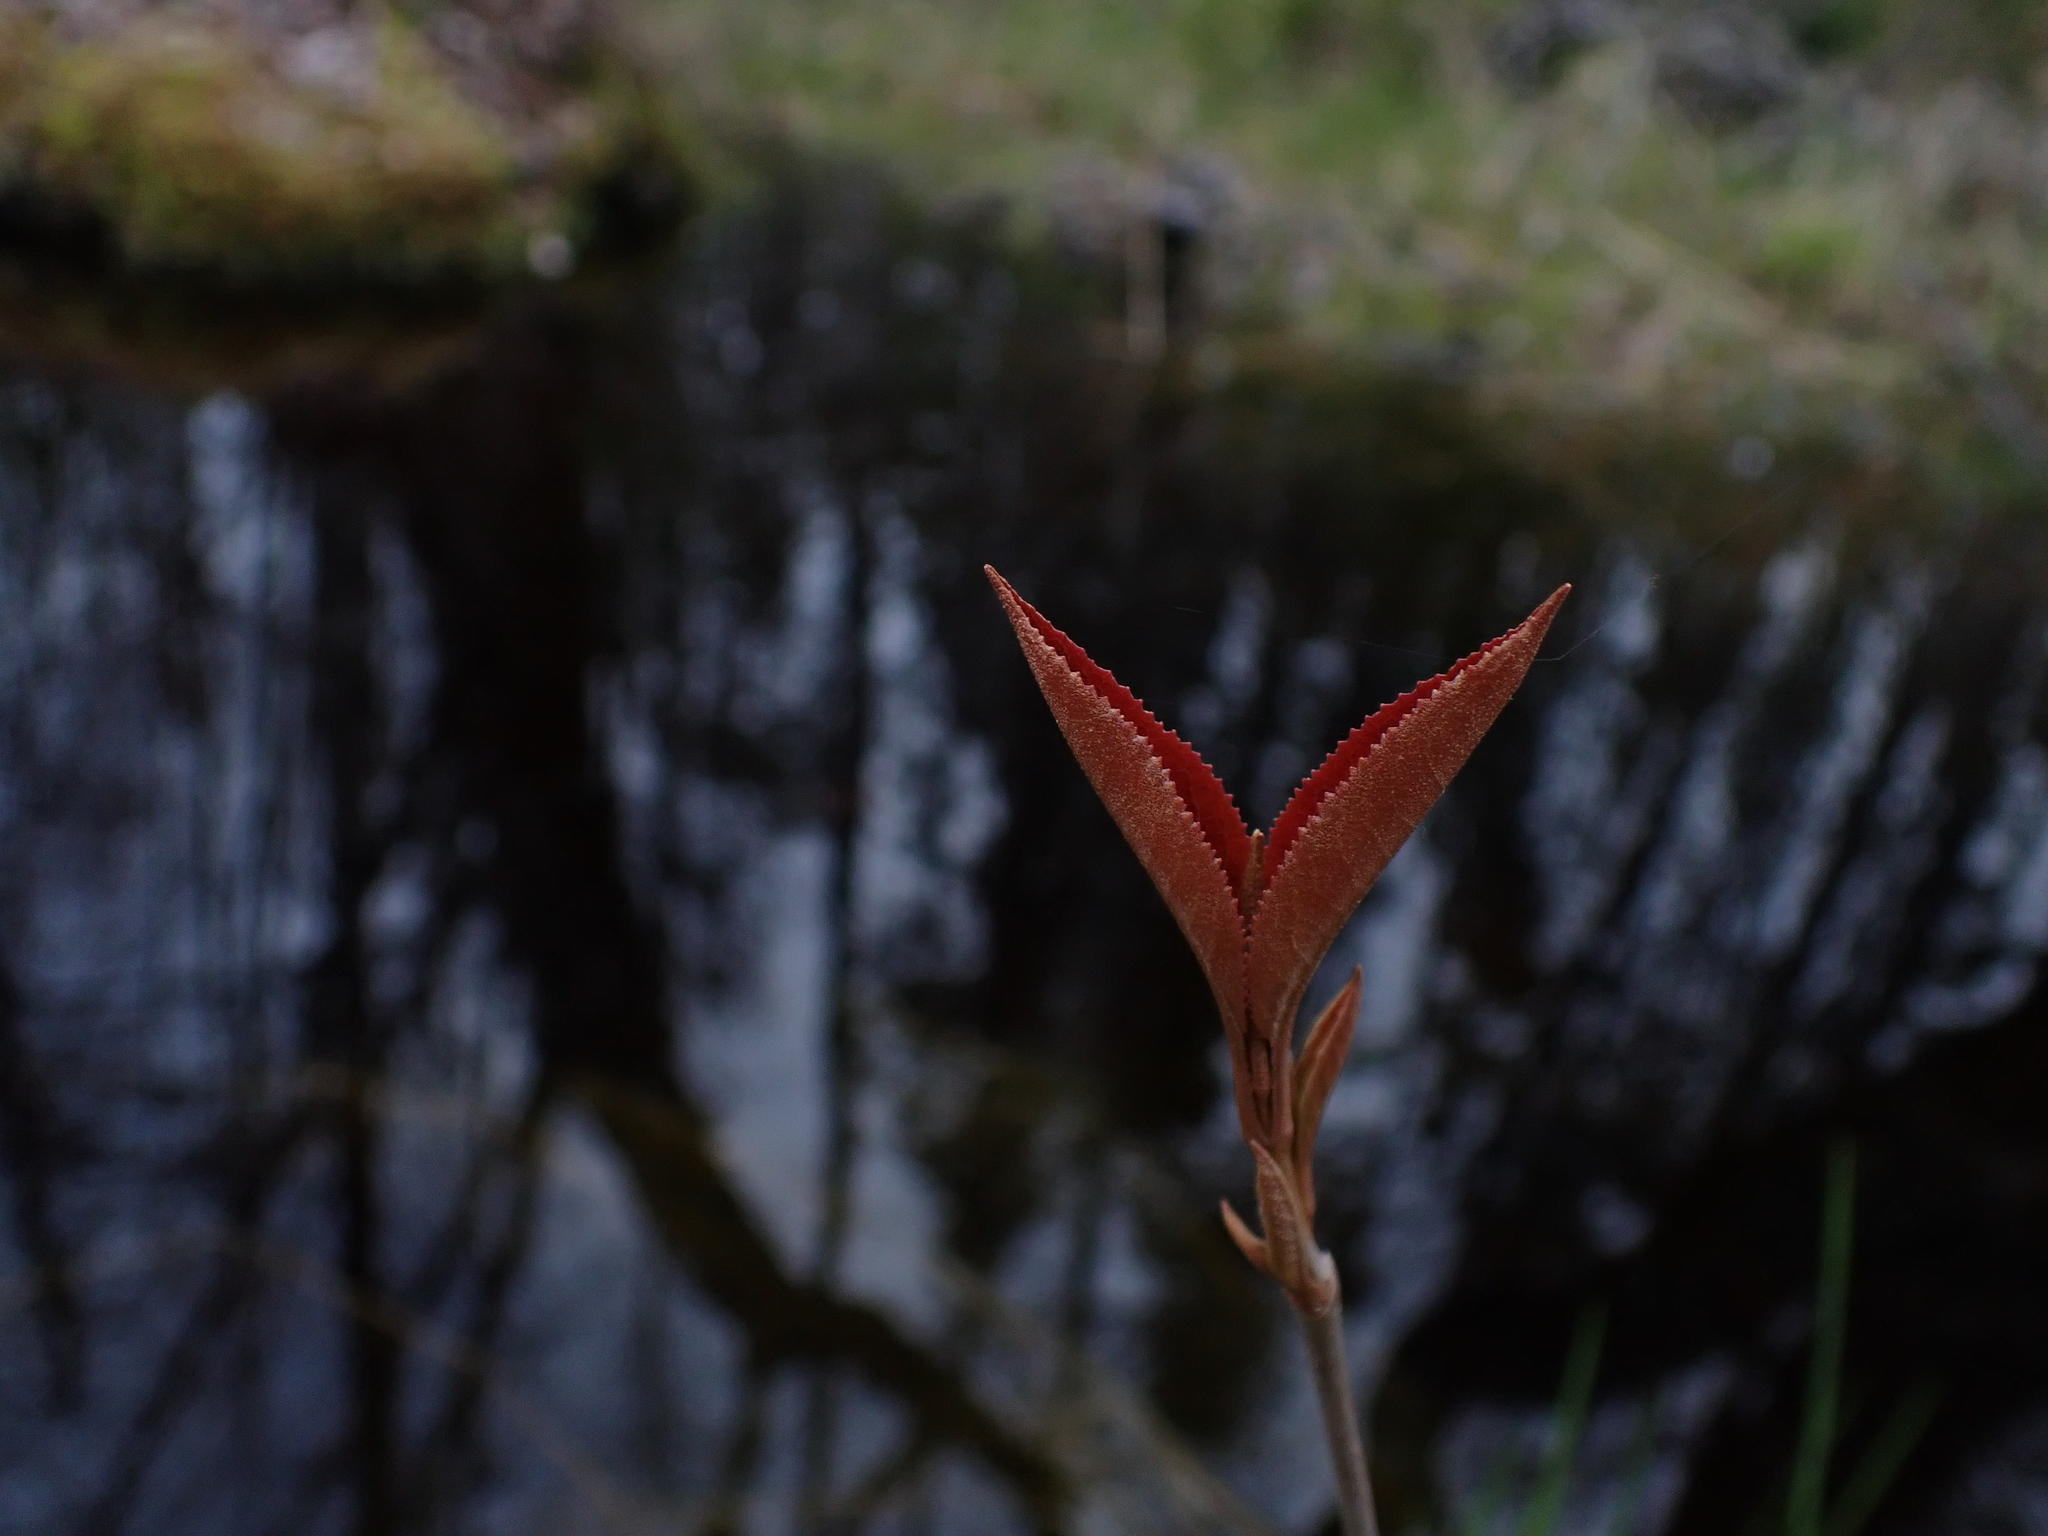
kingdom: Plantae
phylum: Tracheophyta
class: Magnoliopsida
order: Dipsacales
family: Viburnaceae
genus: Viburnum
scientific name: Viburnum cassinoides
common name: Swamp haw
